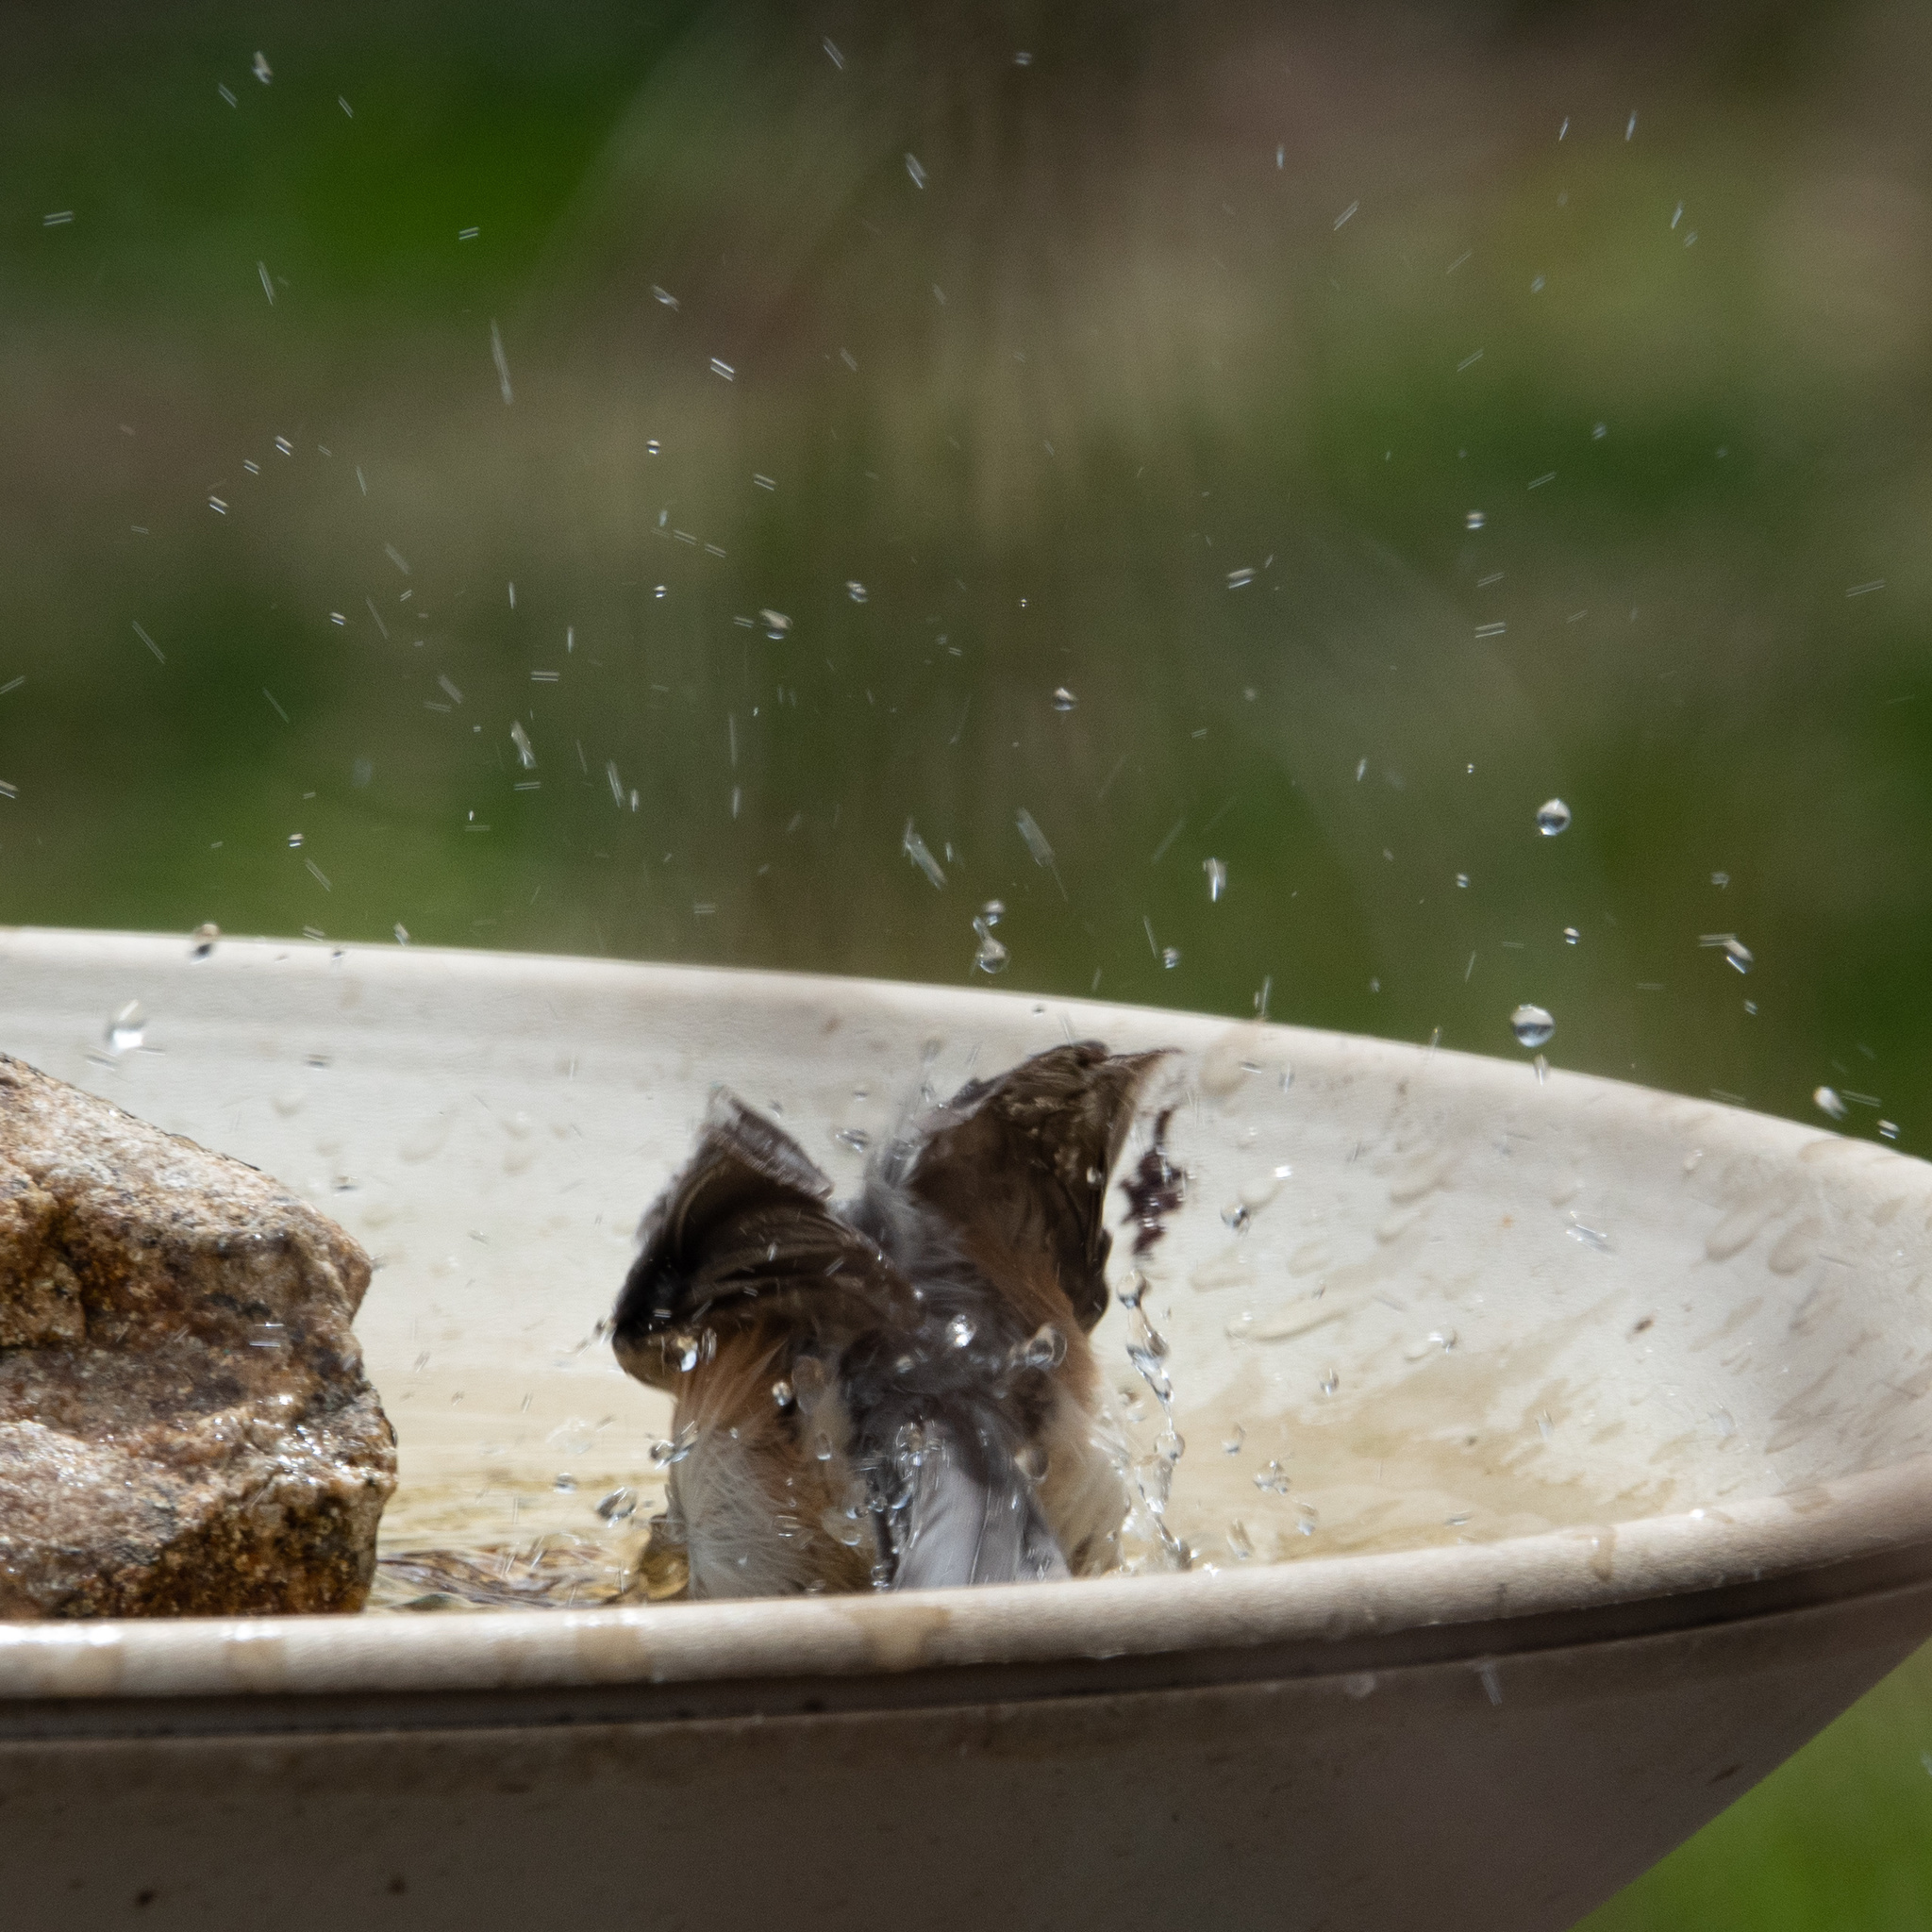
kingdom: Animalia
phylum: Chordata
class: Aves
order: Passeriformes
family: Paridae
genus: Baeolophus
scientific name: Baeolophus bicolor
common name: Tufted titmouse
